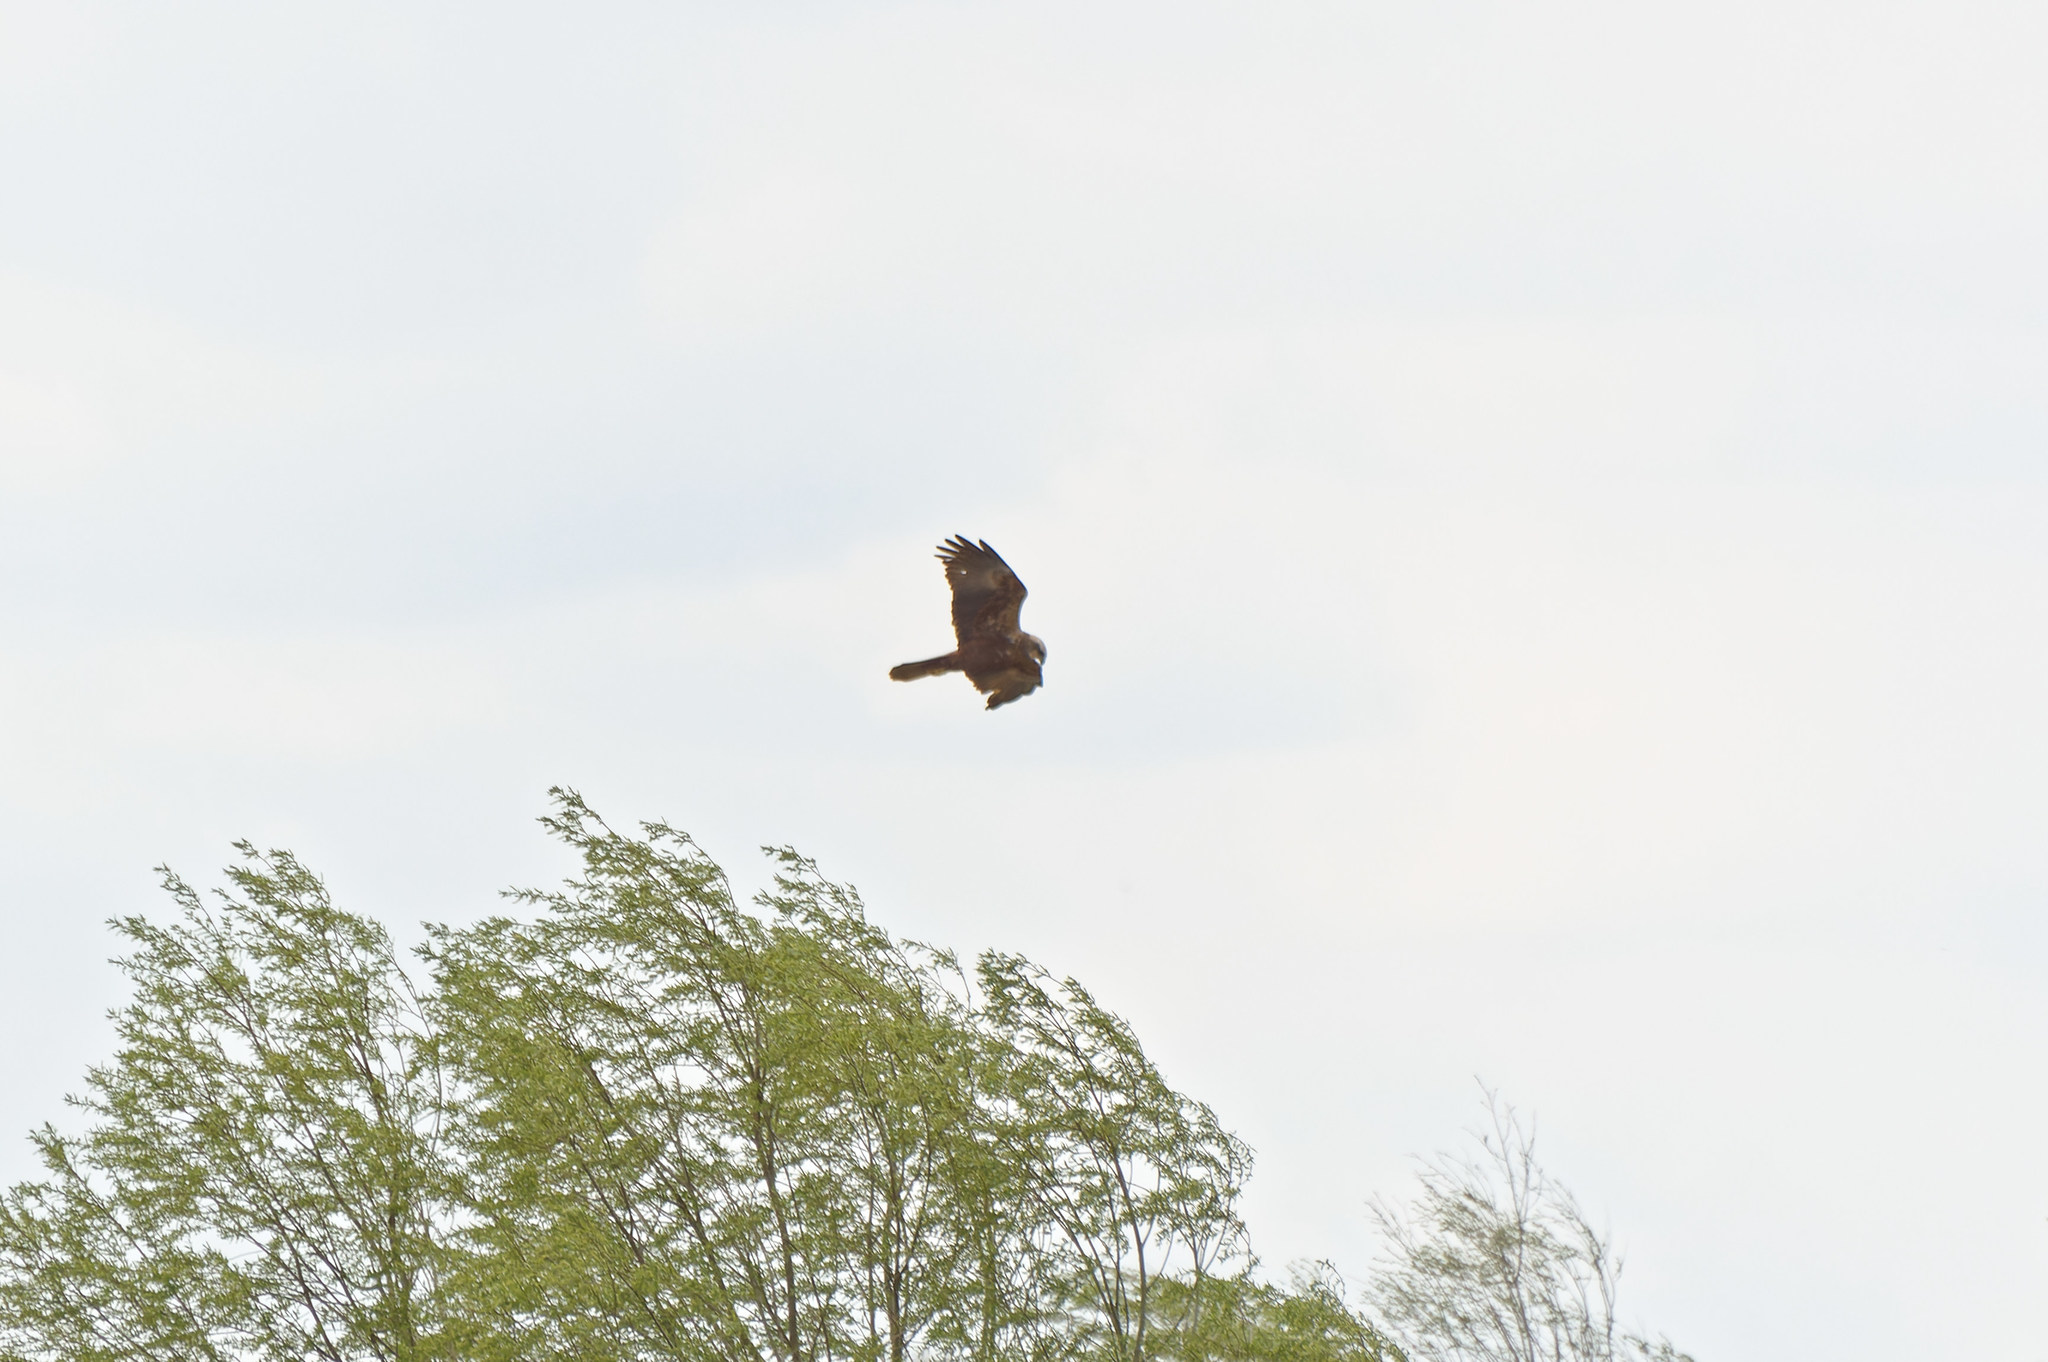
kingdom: Animalia
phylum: Chordata
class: Aves
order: Accipitriformes
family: Accipitridae
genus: Circus
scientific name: Circus aeruginosus
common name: Western marsh harrier
